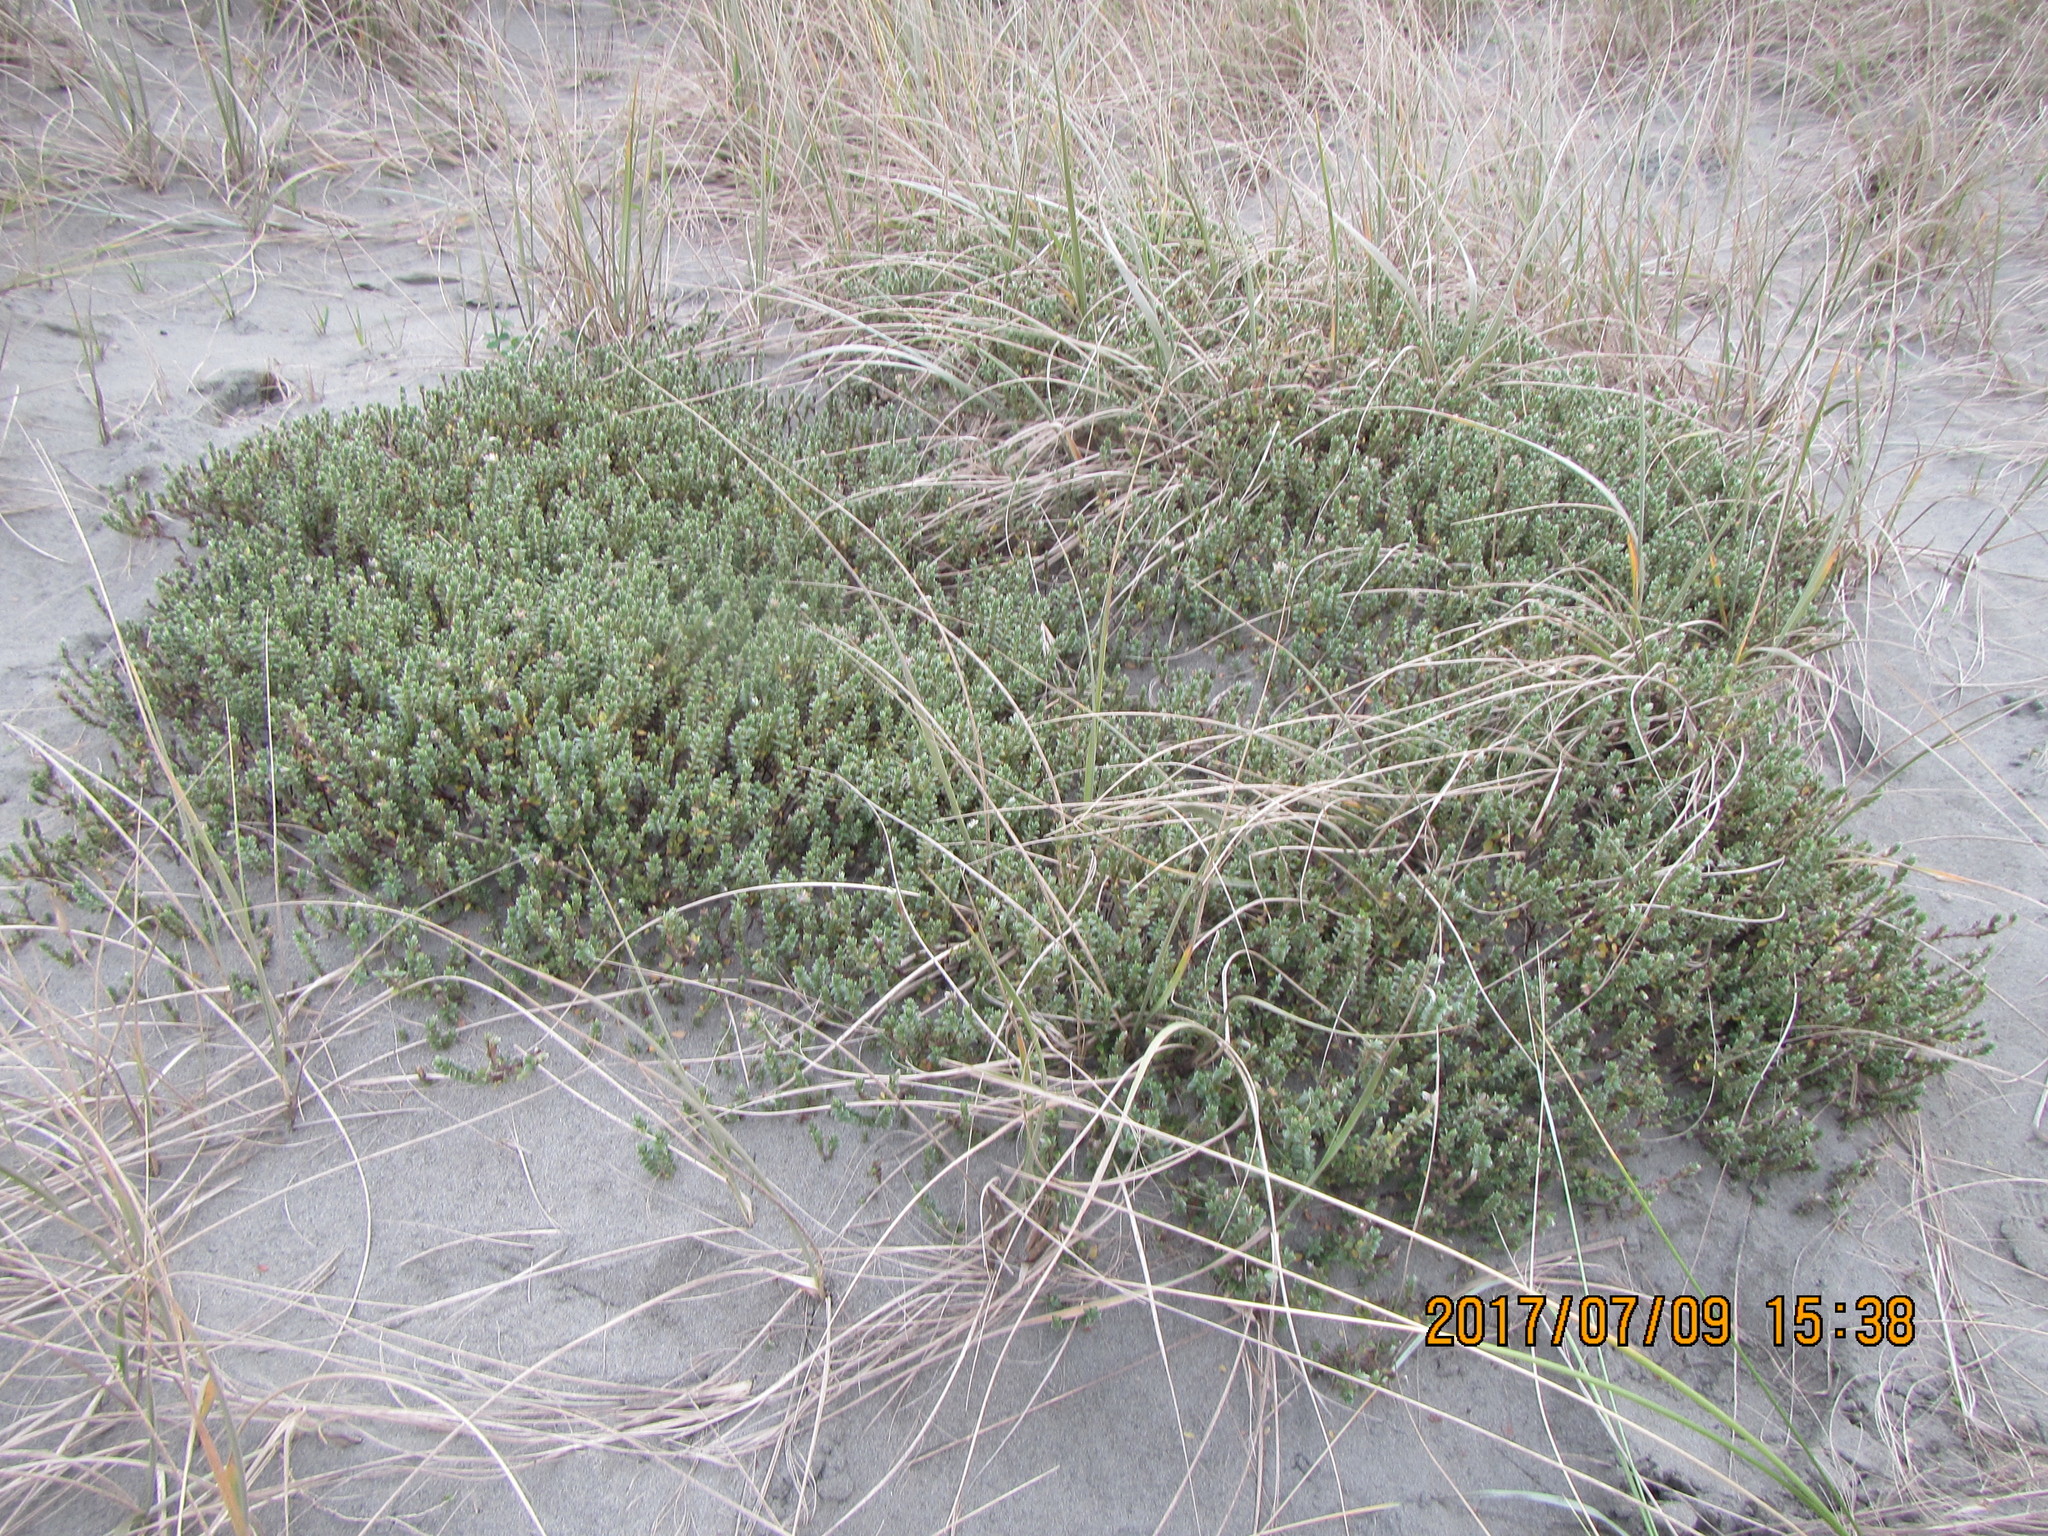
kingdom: Plantae
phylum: Tracheophyta
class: Magnoliopsida
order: Malvales
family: Thymelaeaceae
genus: Pimelea
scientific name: Pimelea villosa
